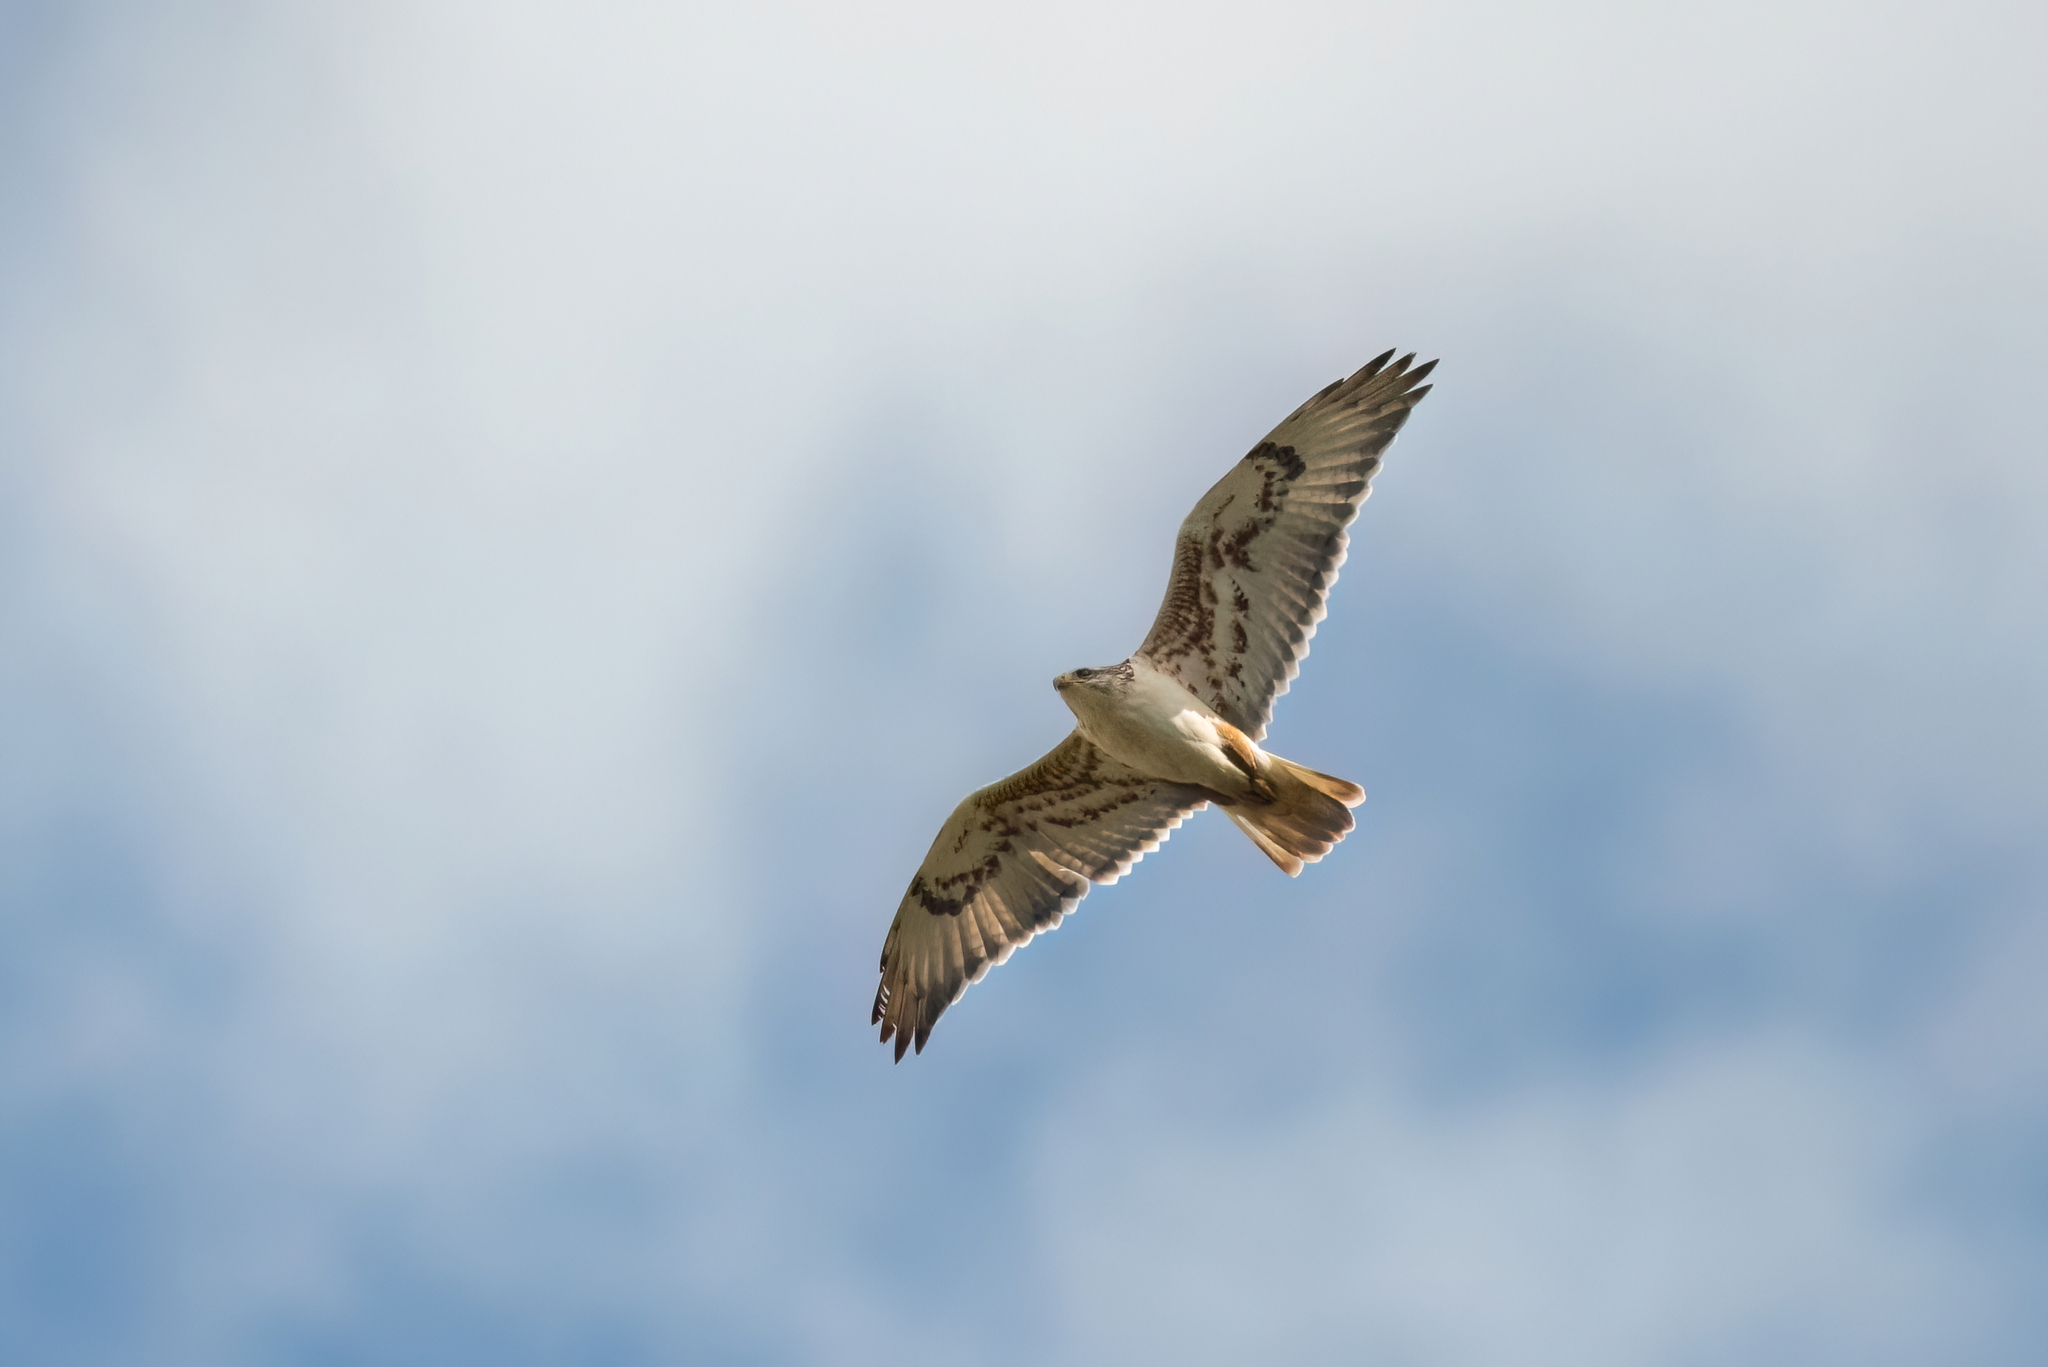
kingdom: Animalia
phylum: Chordata
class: Aves
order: Accipitriformes
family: Accipitridae
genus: Buteo
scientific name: Buteo regalis
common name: Ferruginous hawk
